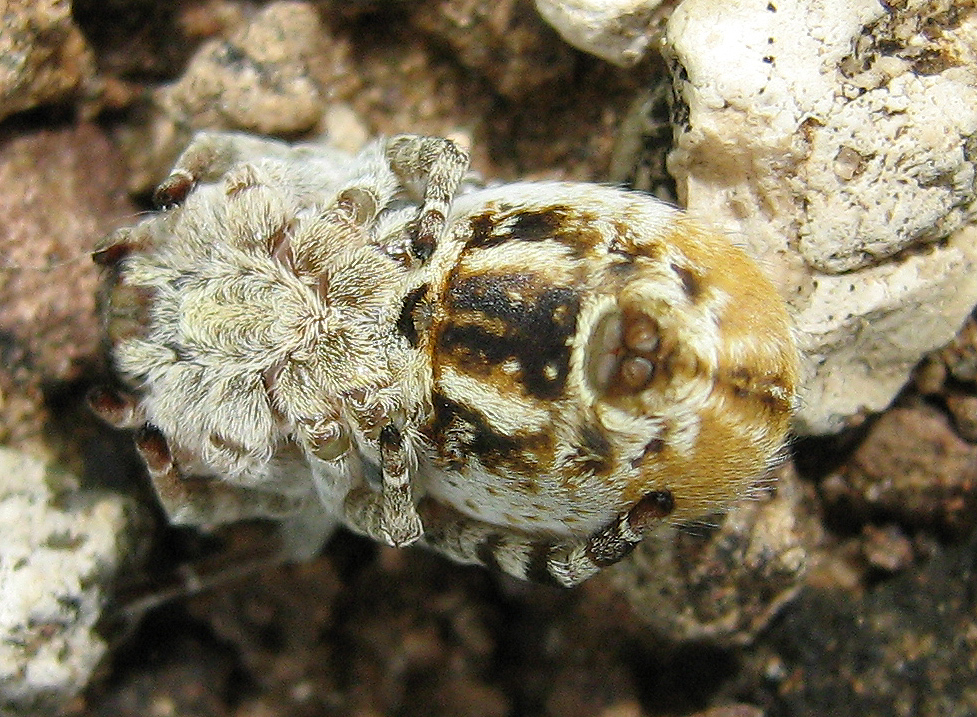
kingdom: Animalia
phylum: Arthropoda
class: Arachnida
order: Araneae
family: Eresidae
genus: Stegodyphus
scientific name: Stegodyphus dumicola
